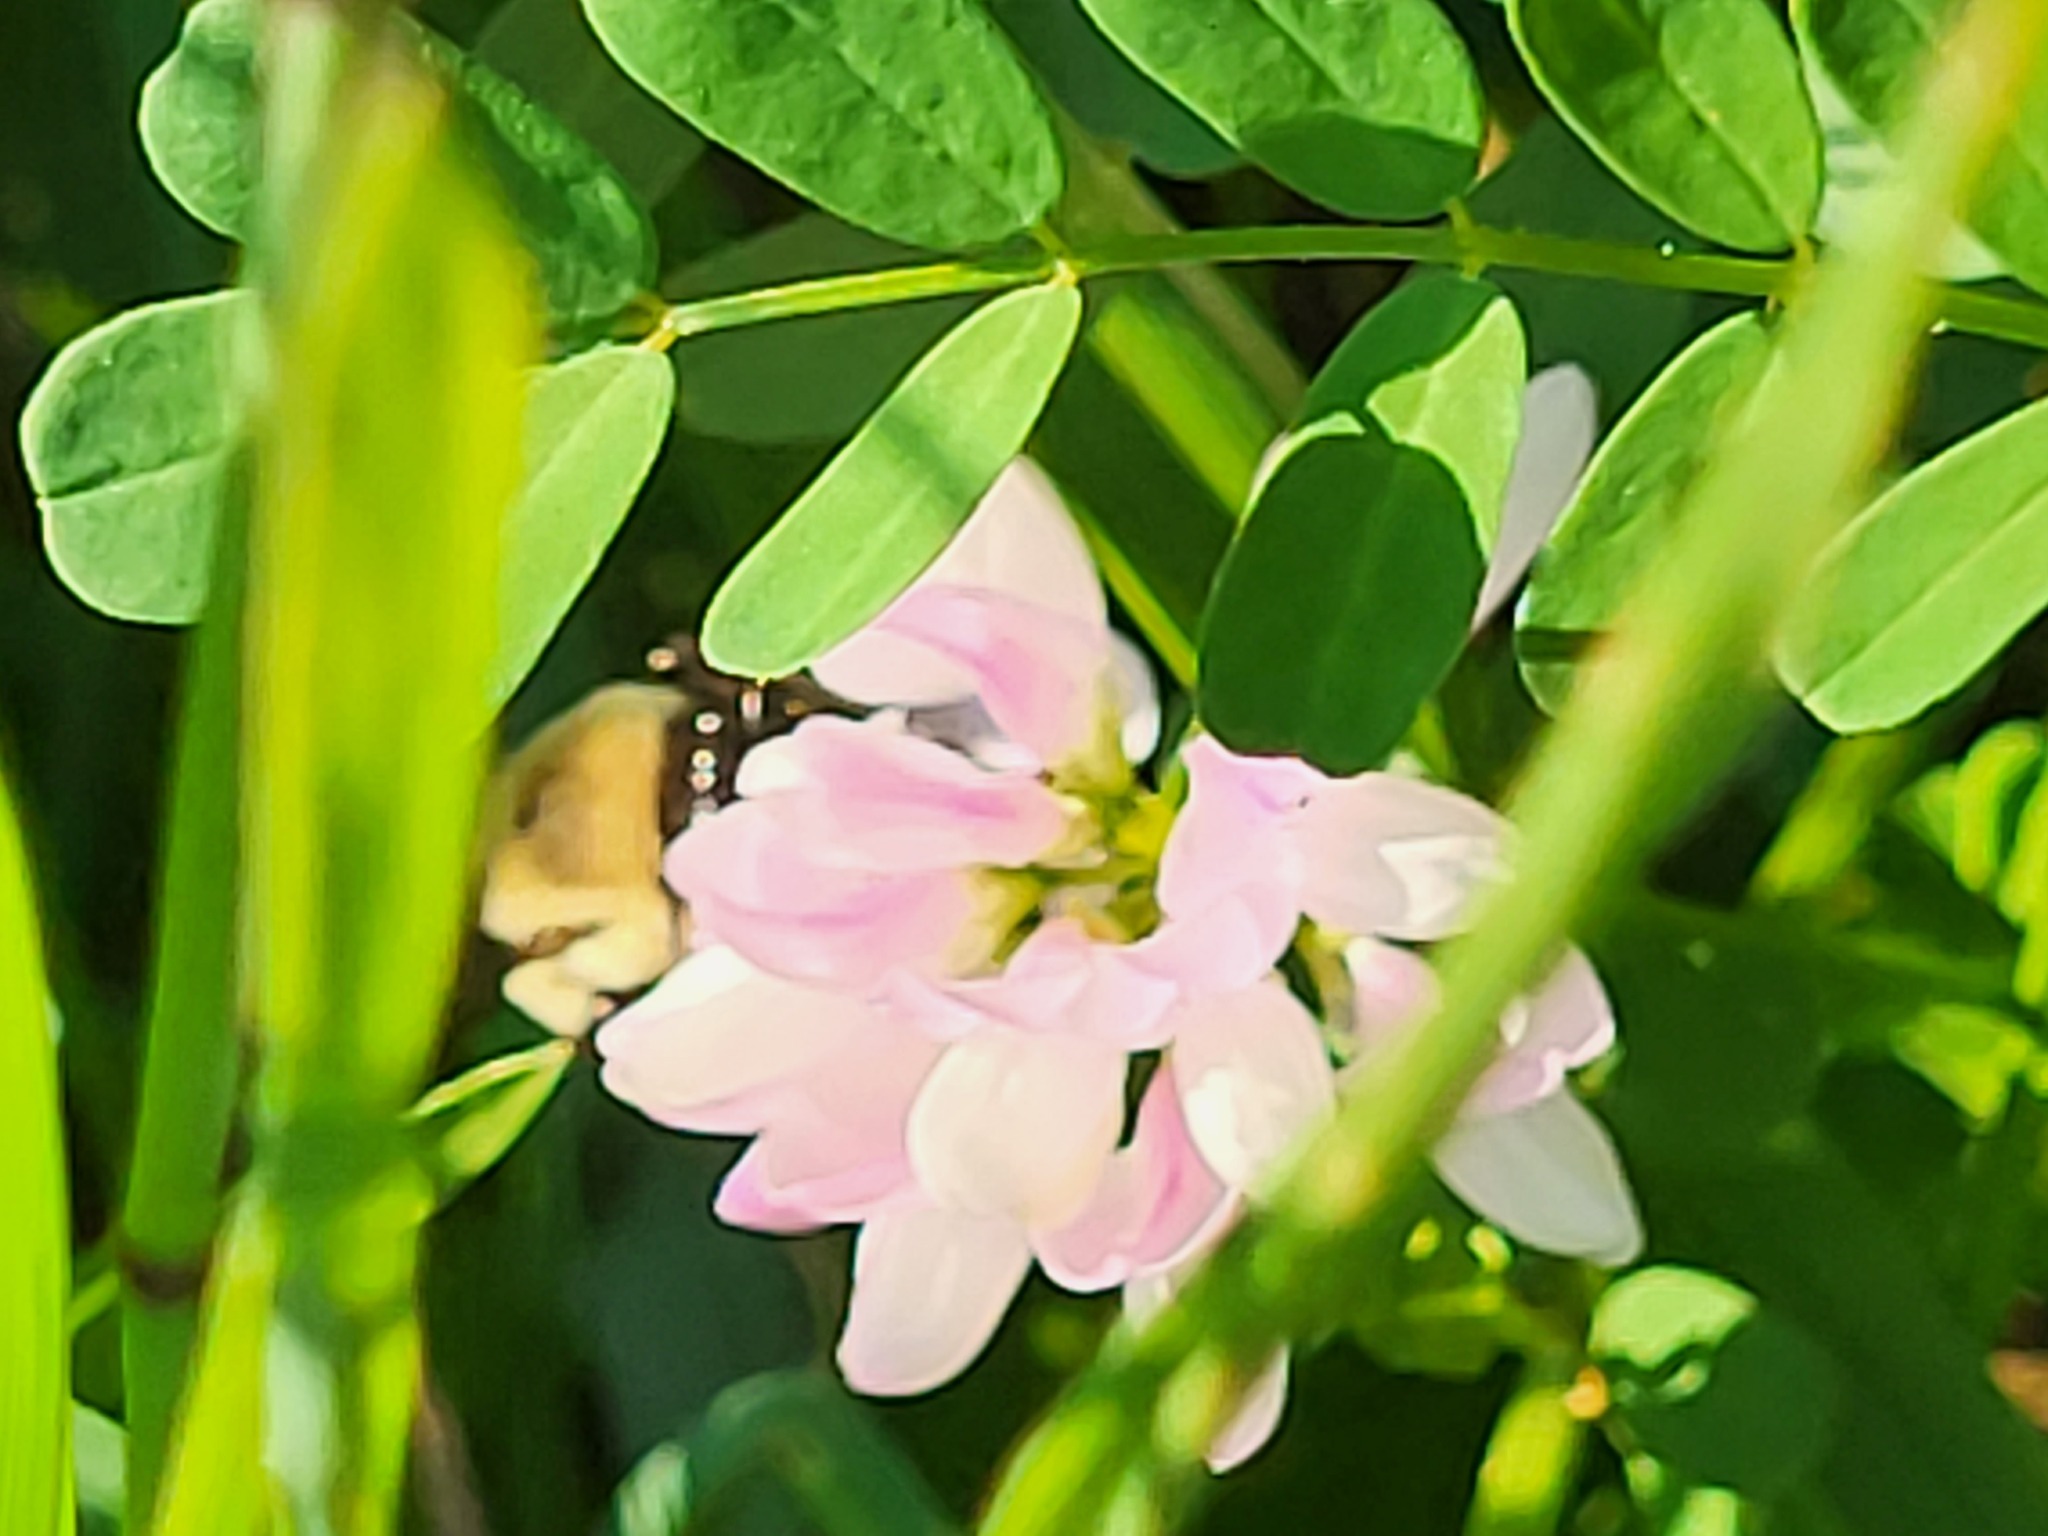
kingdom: Animalia
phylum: Arthropoda
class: Insecta
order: Hymenoptera
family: Apidae
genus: Bombus
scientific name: Bombus impatiens
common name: Common eastern bumble bee
